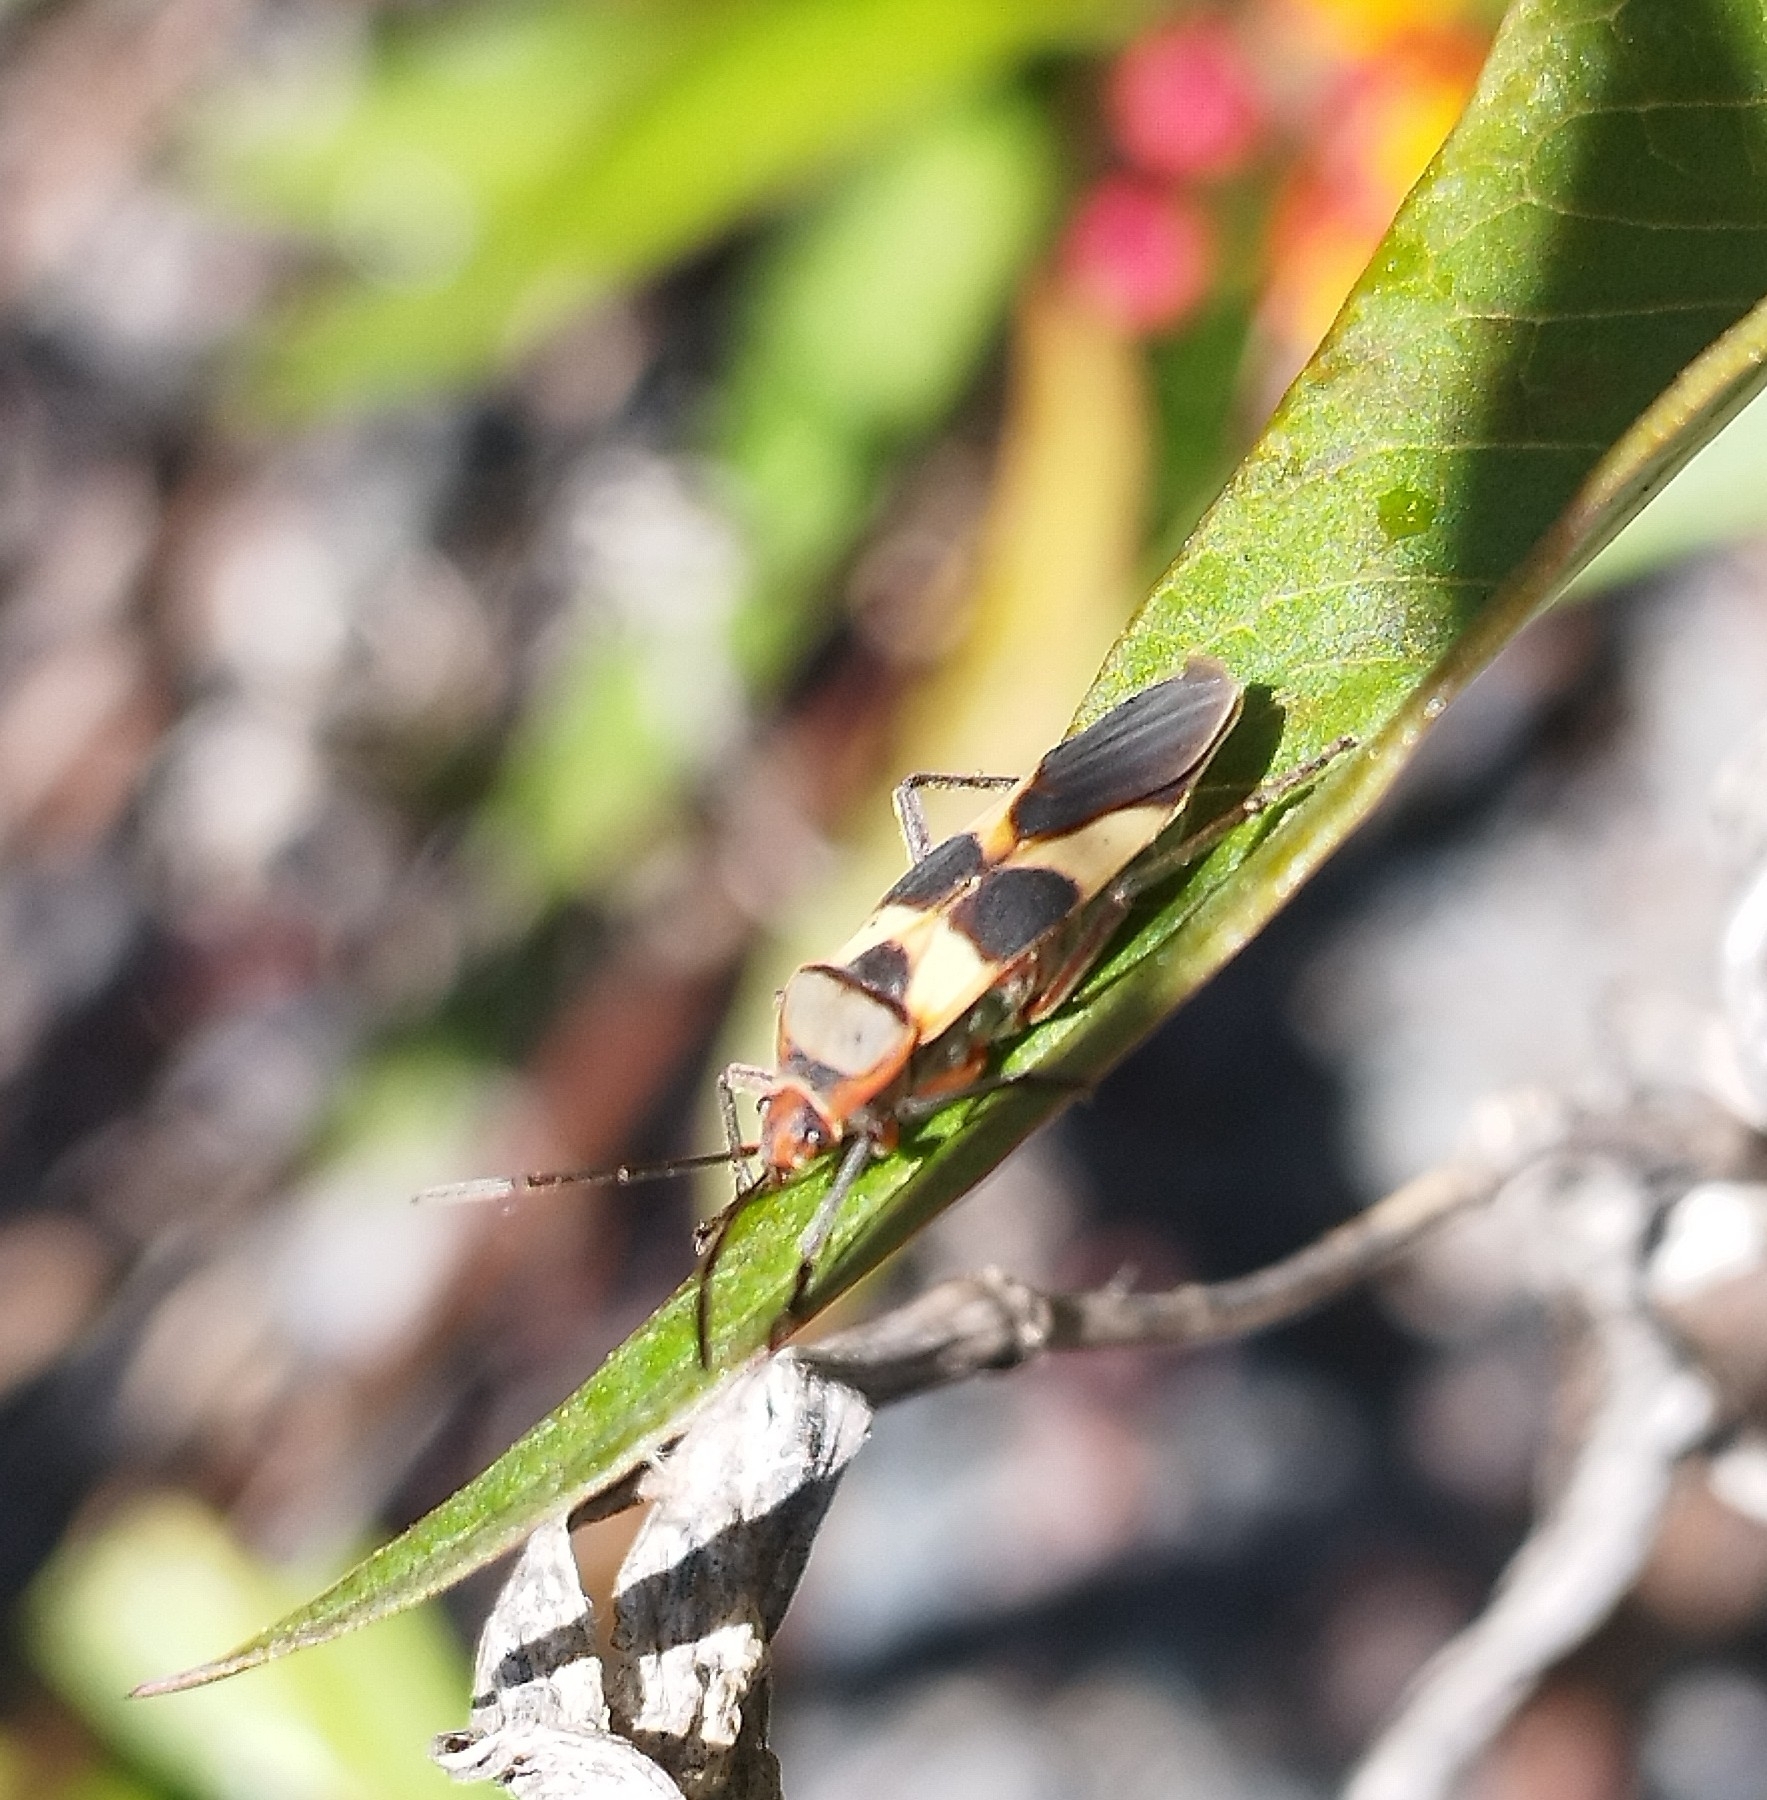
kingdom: Animalia
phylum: Arthropoda
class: Insecta
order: Hemiptera
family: Lygaeidae
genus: Oncopeltus
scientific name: Oncopeltus unifasciatellus
